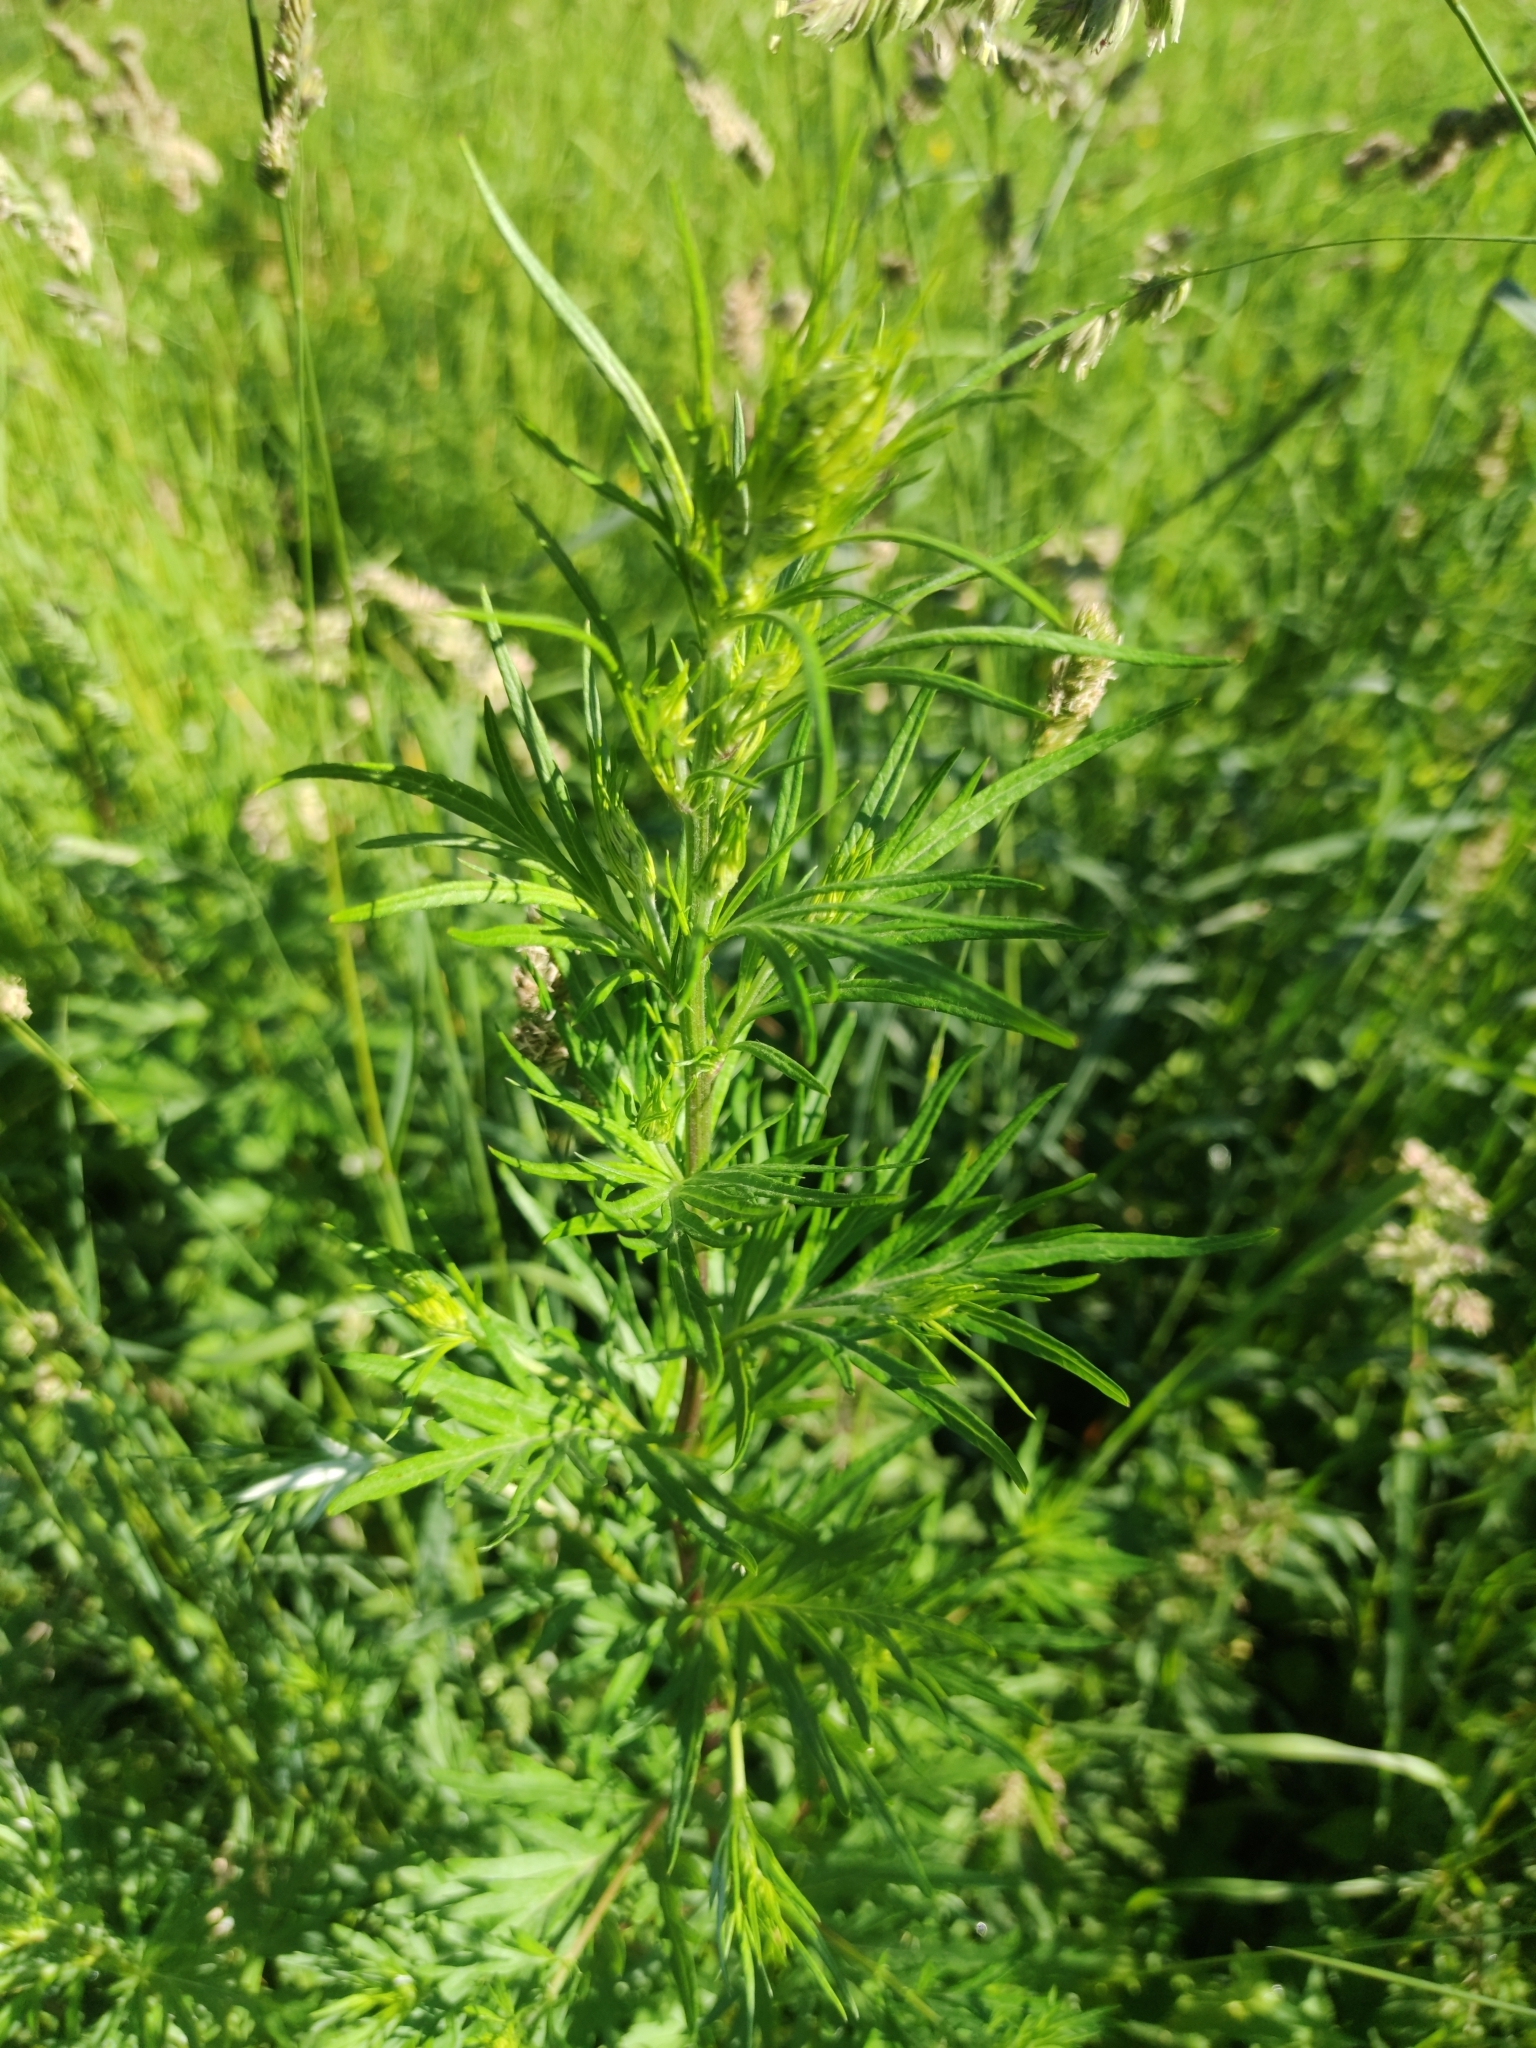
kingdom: Plantae
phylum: Tracheophyta
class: Magnoliopsida
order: Asterales
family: Asteraceae
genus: Artemisia
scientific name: Artemisia vulgaris
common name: Mugwort
